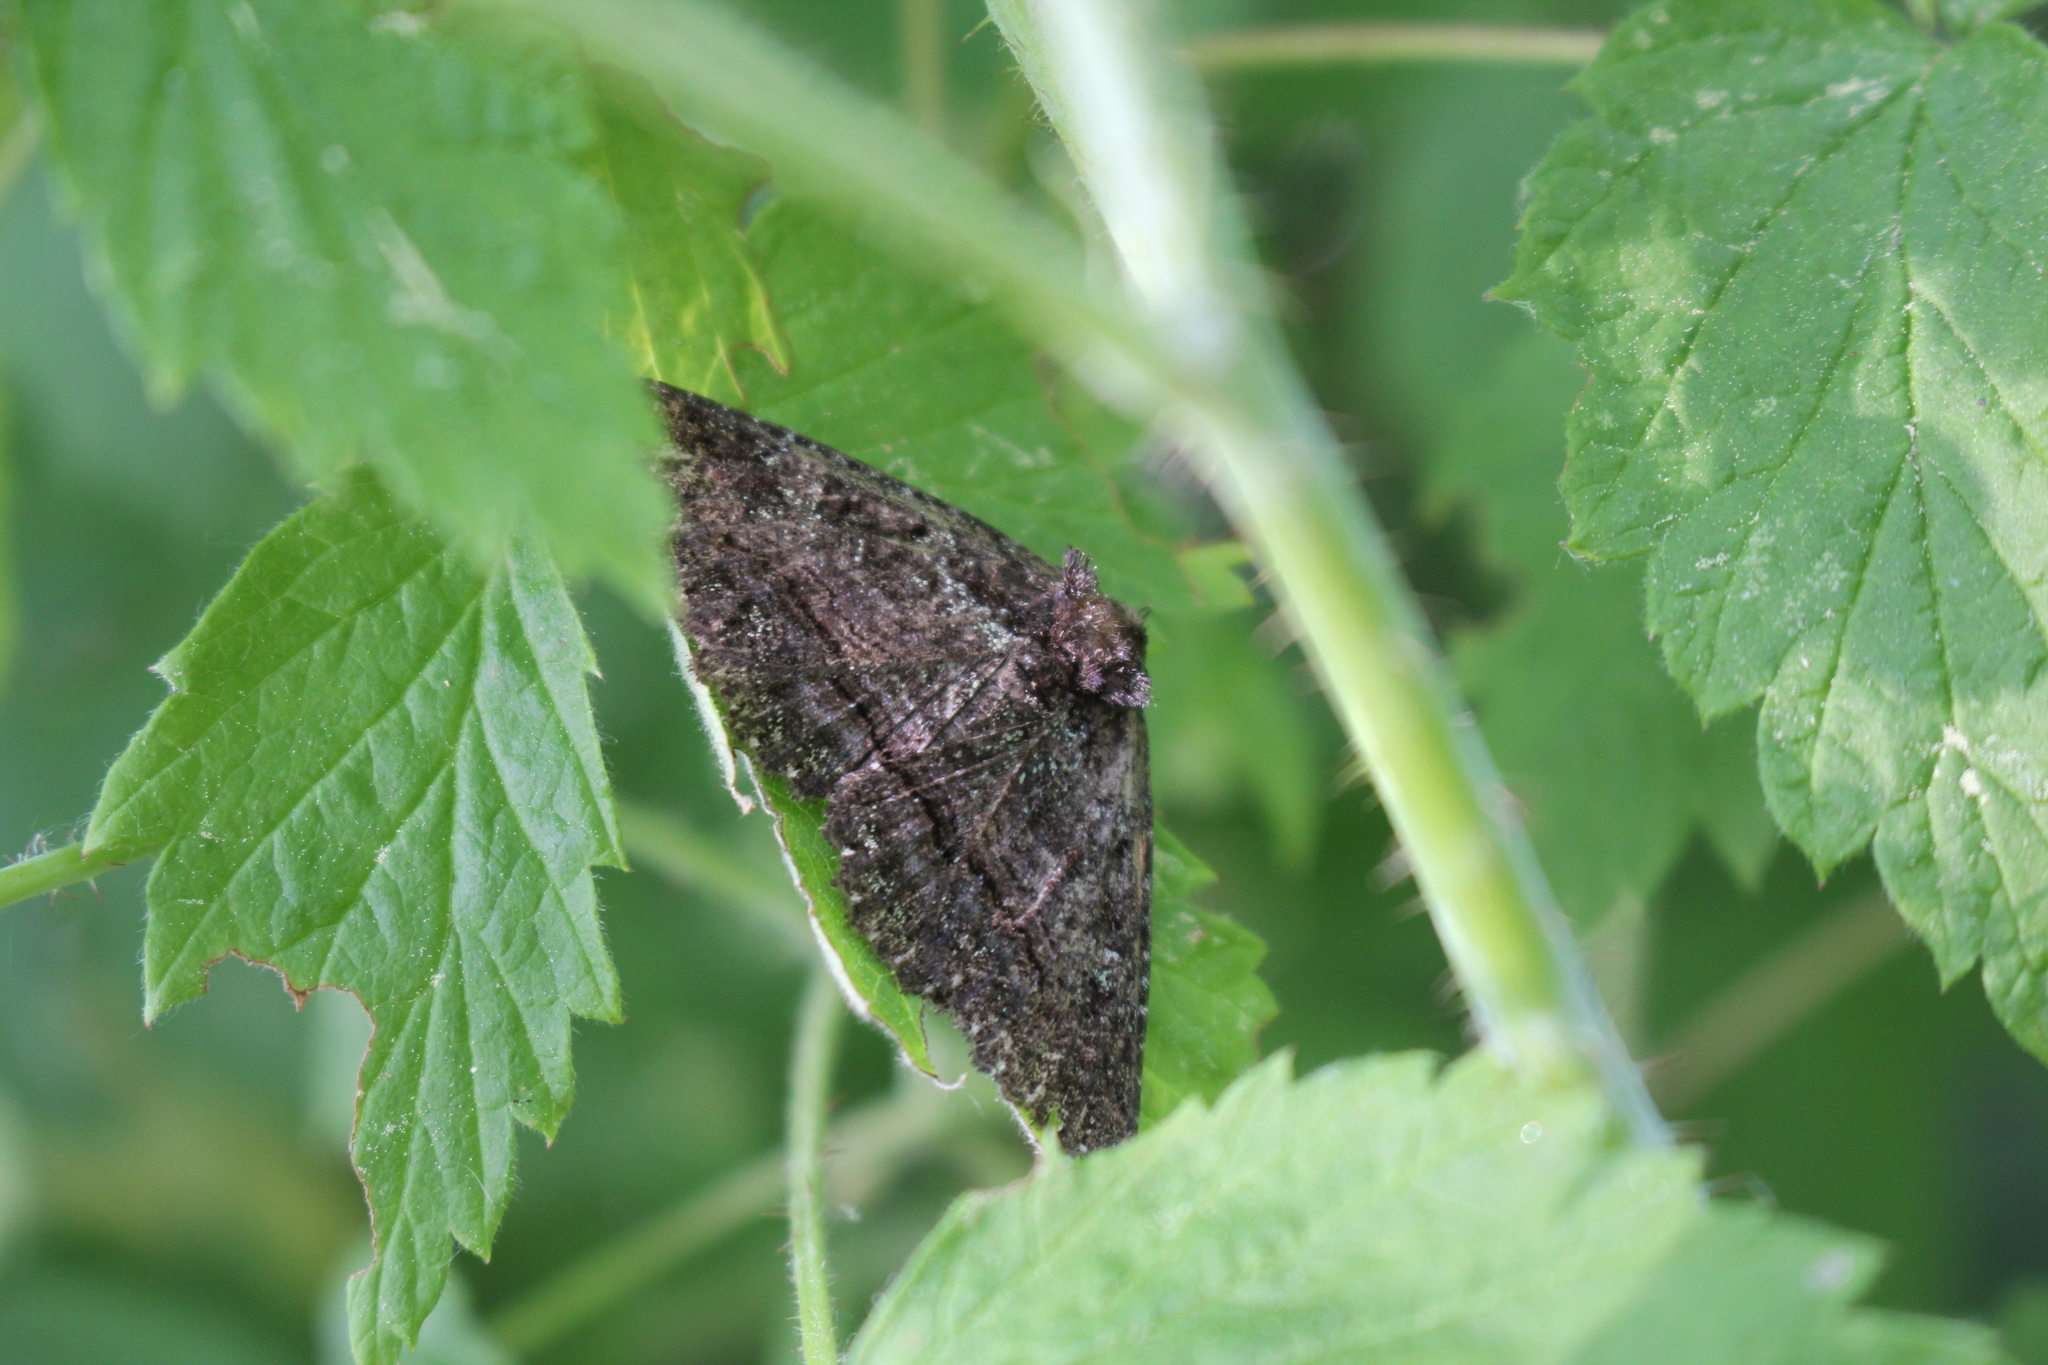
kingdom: Animalia
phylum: Arthropoda
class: Insecta
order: Lepidoptera
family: Erebidae
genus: Zale
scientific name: Zale aeruginosa
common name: Green-dusted zale moth
